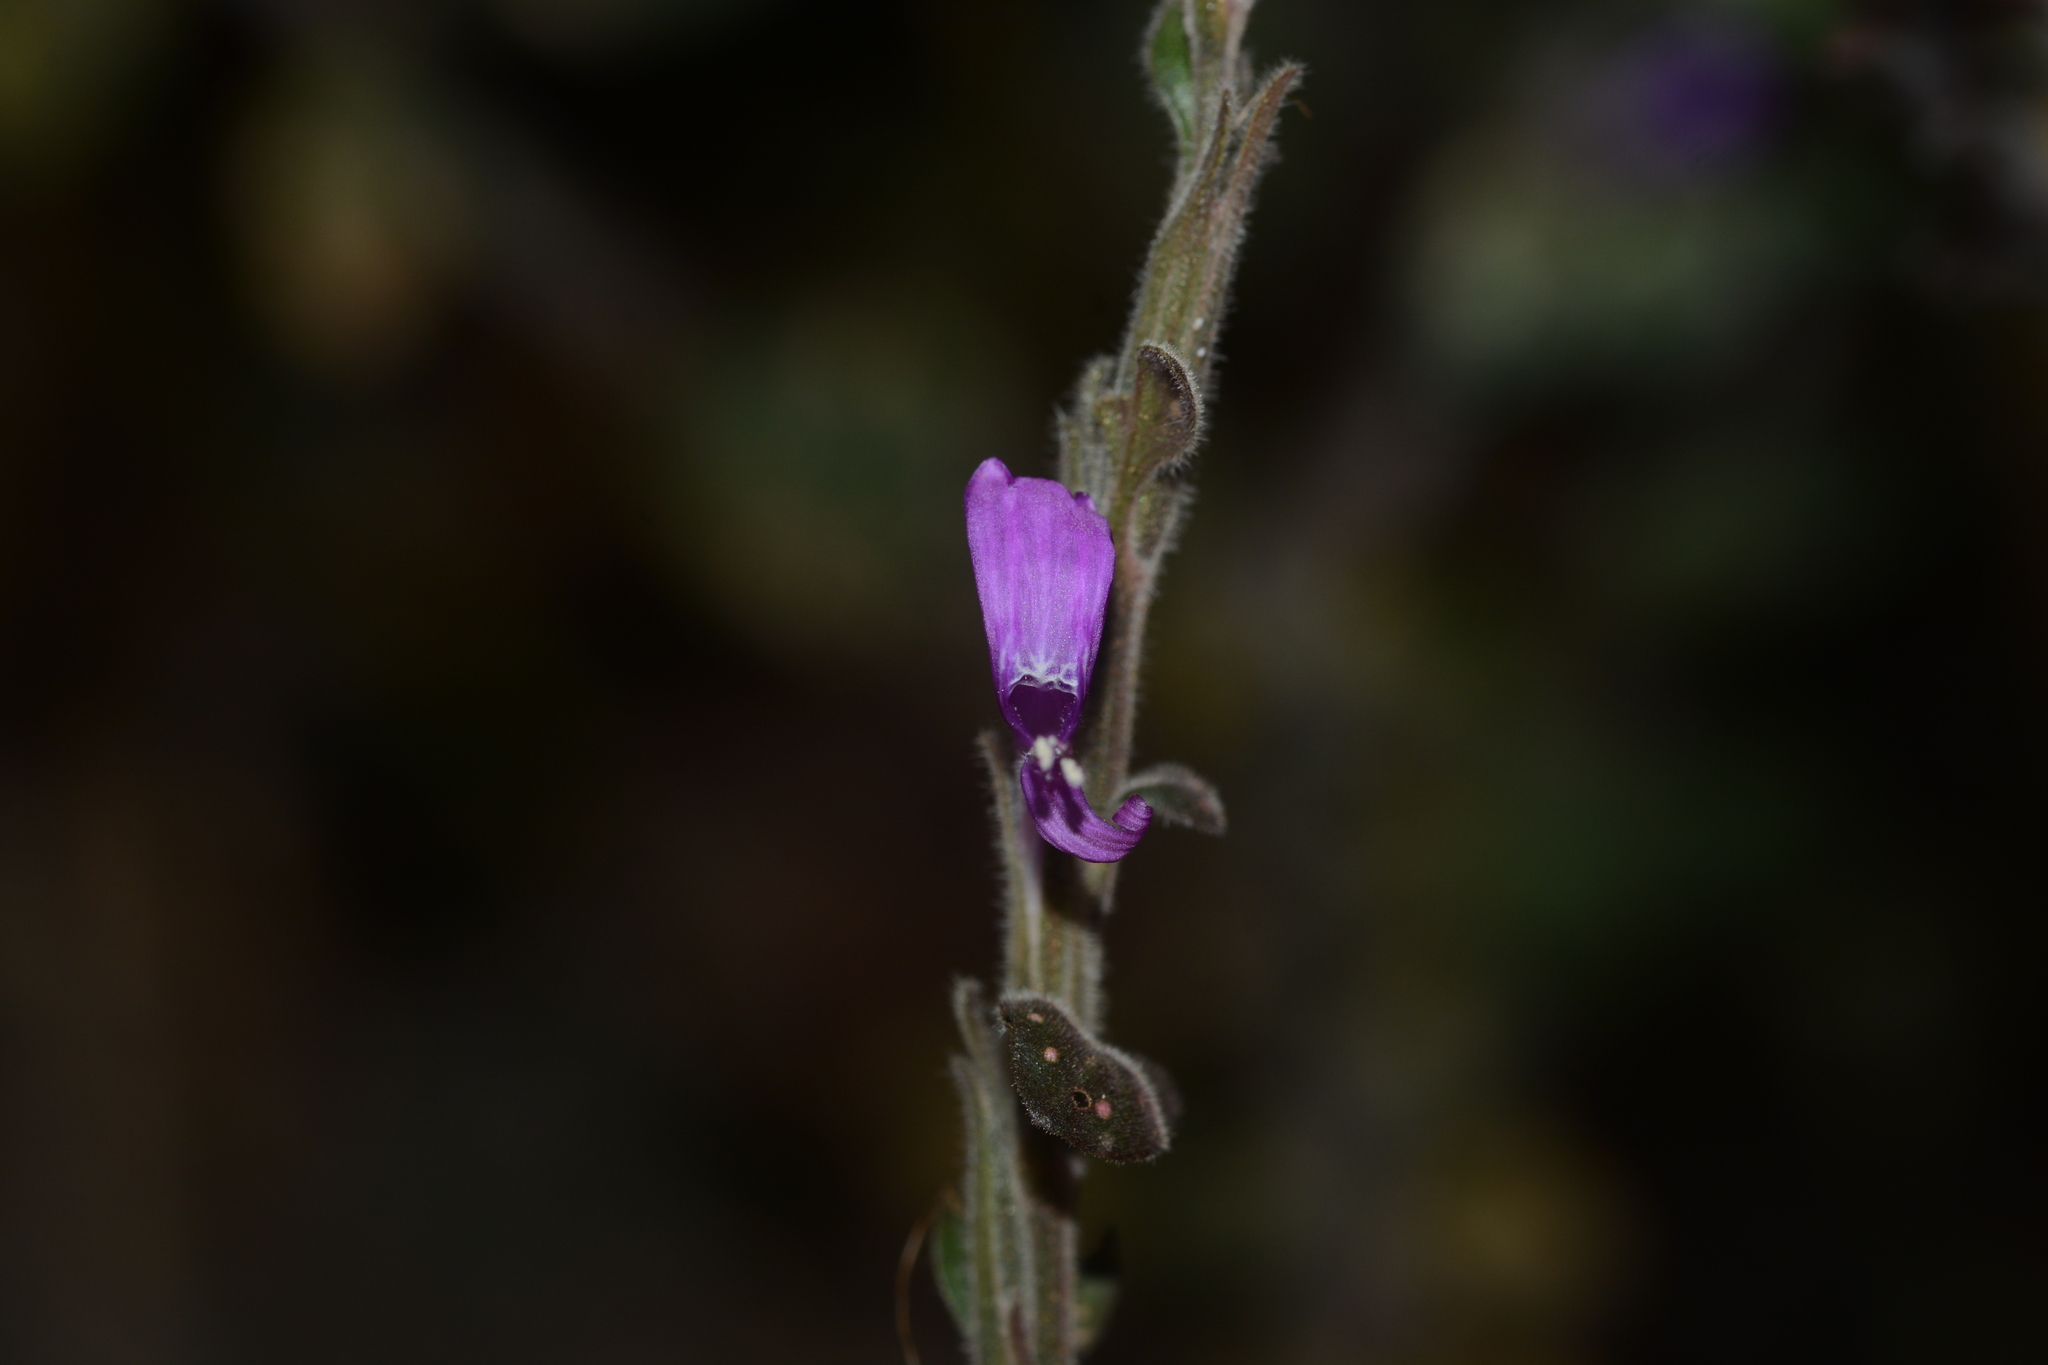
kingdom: Plantae
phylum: Tracheophyta
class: Magnoliopsida
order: Lamiales
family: Acanthaceae
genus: Hypoestes
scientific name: Hypoestes phyllostachya
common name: Polkadot-plant
